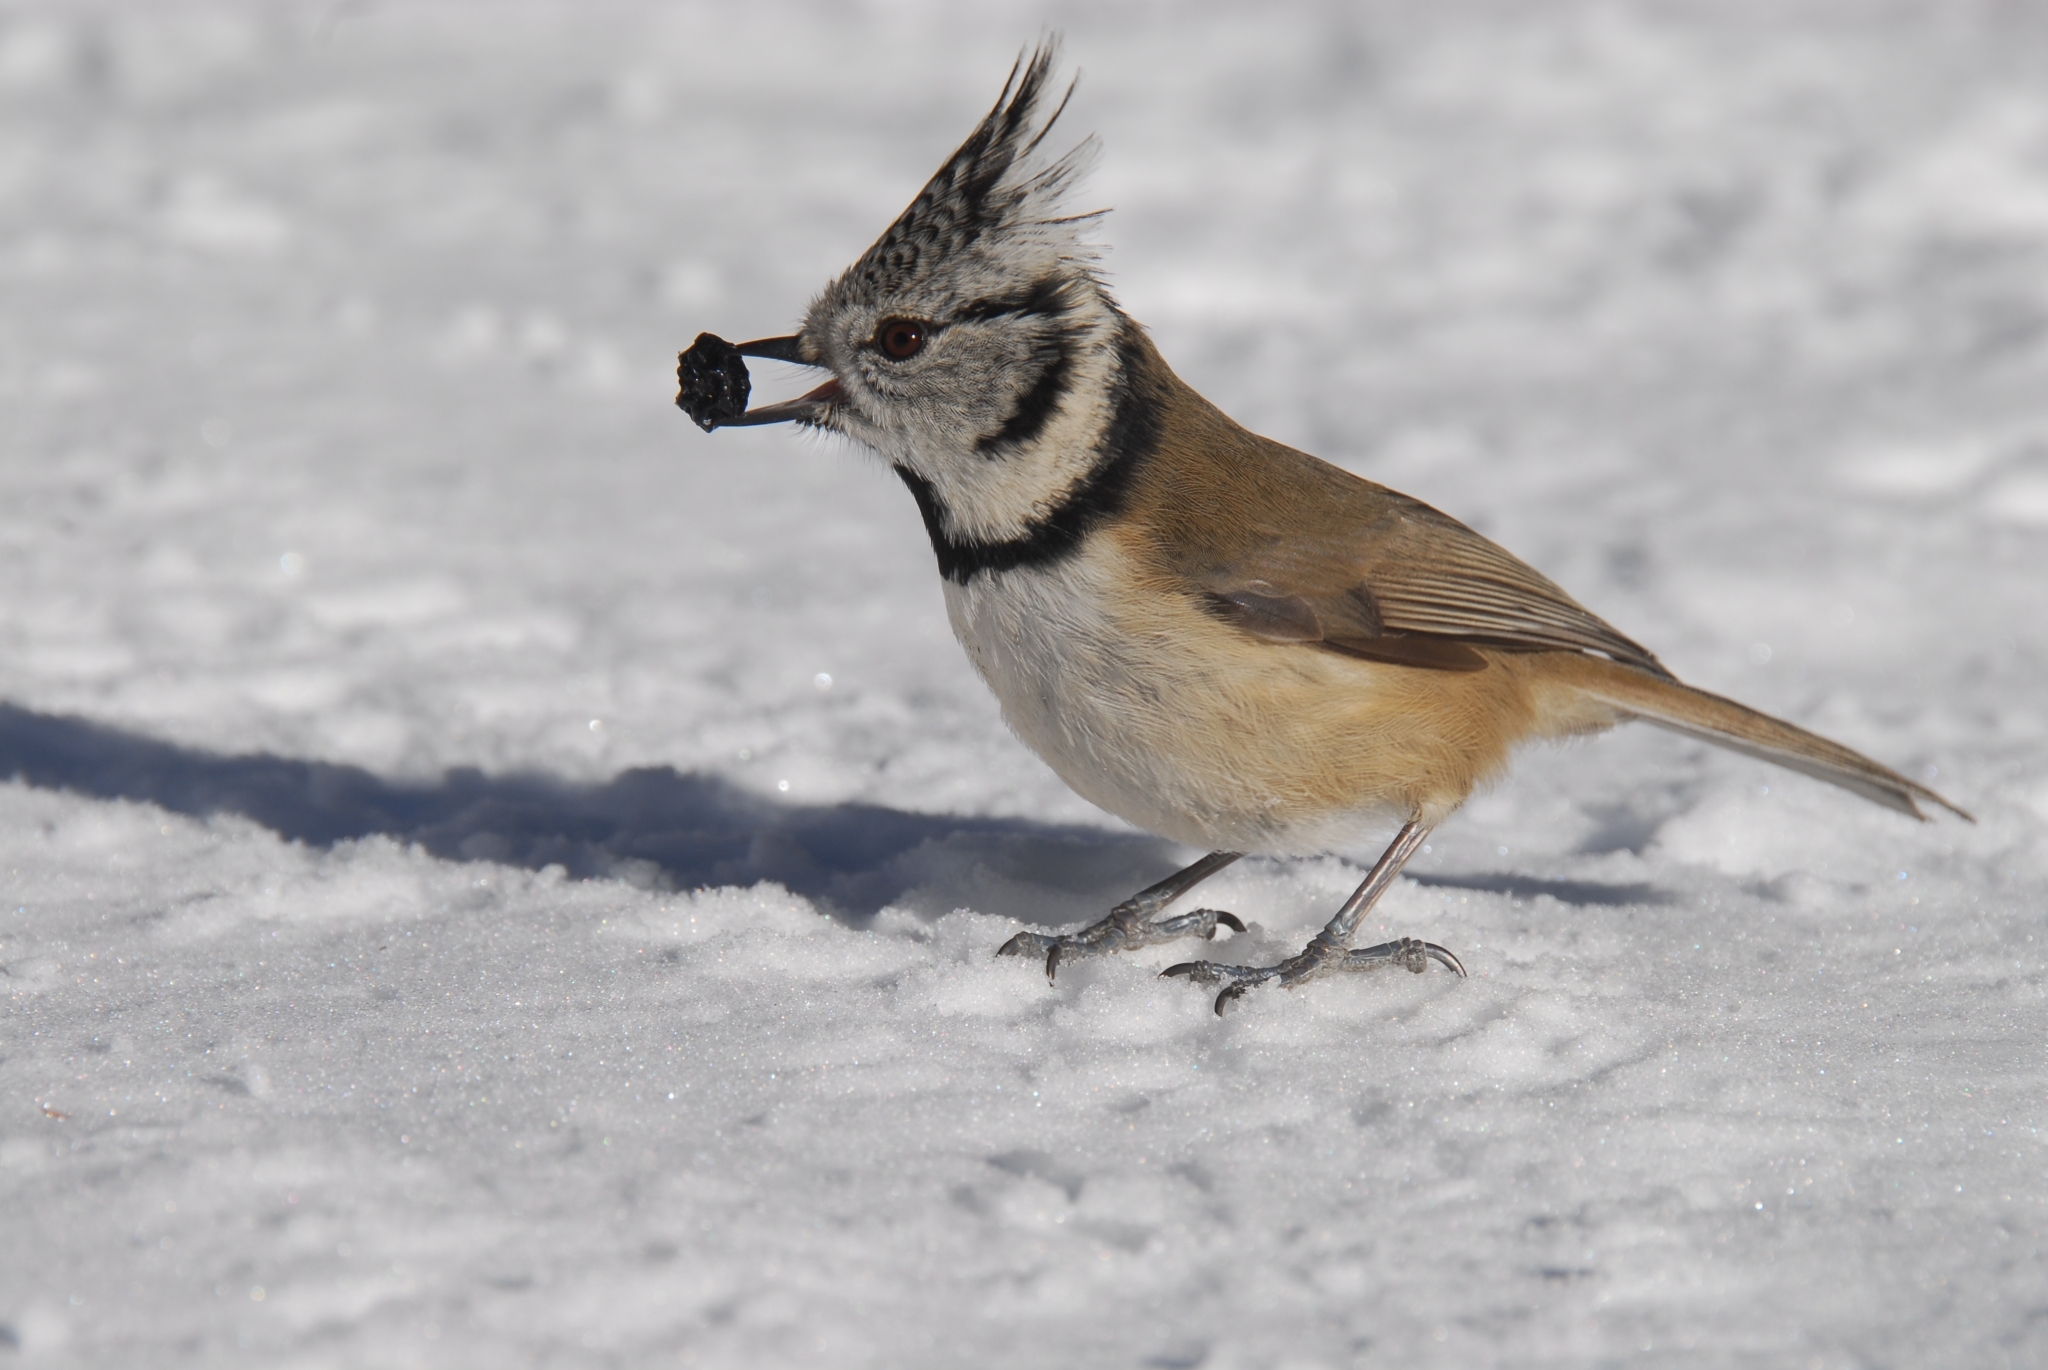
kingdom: Animalia
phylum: Chordata
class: Aves
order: Passeriformes
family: Paridae
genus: Lophophanes
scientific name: Lophophanes cristatus
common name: European crested tit
